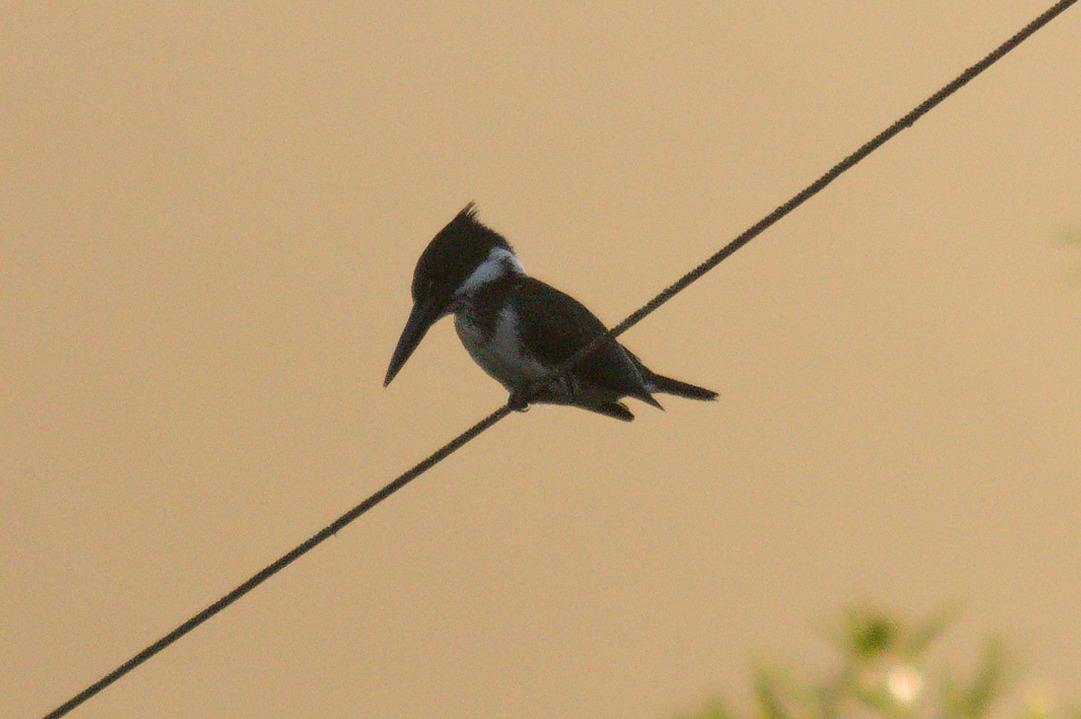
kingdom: Animalia
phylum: Chordata
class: Aves
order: Coraciiformes
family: Alcedinidae
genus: Chloroceryle
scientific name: Chloroceryle amazona
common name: Amazon kingfisher
